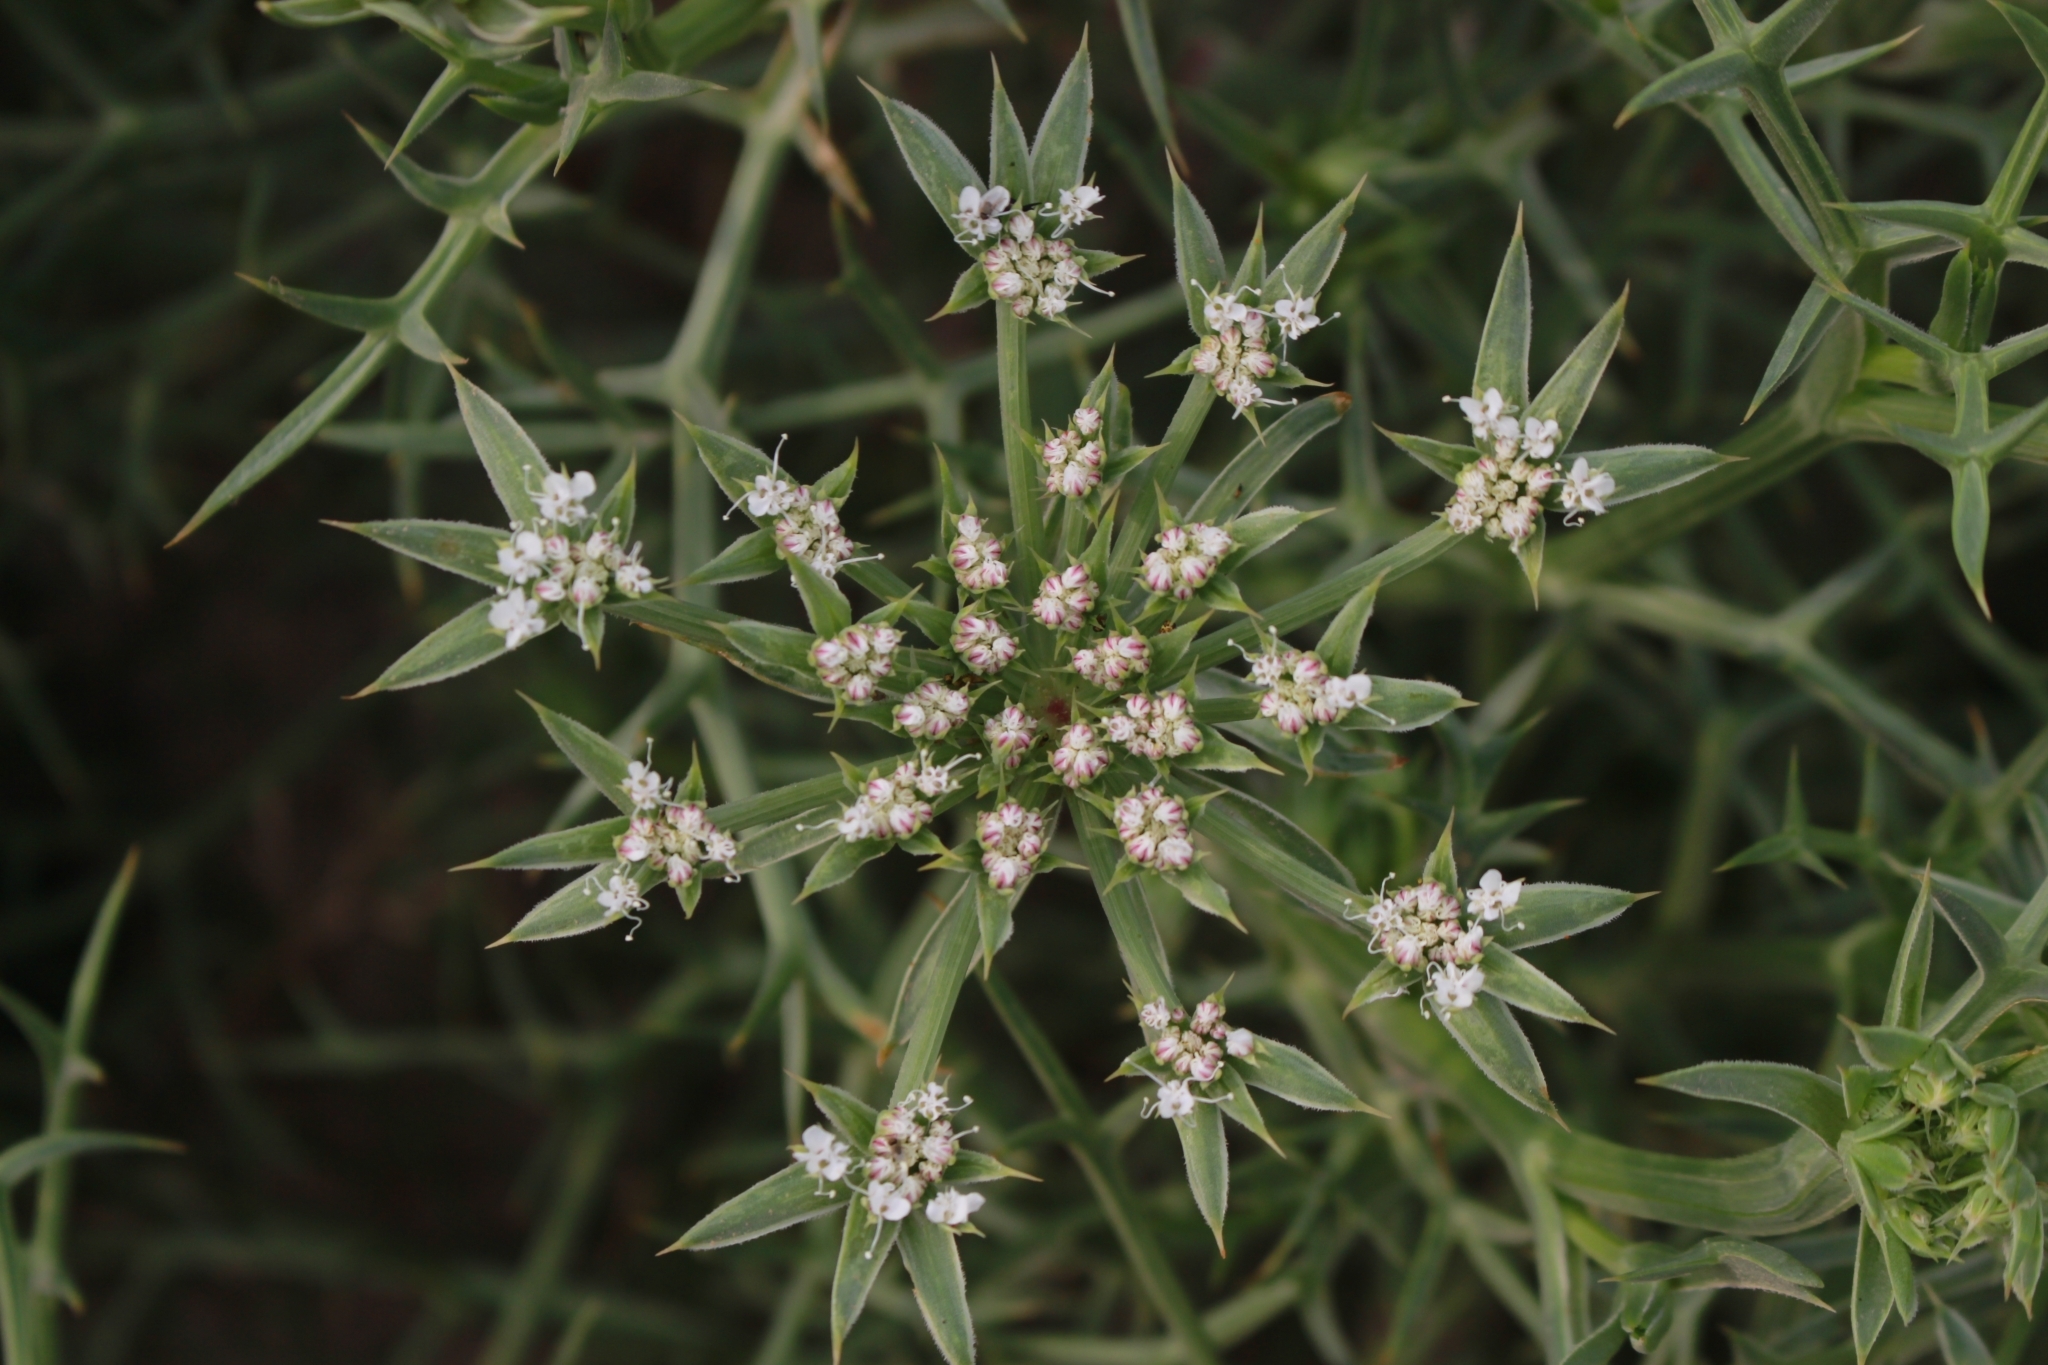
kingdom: Plantae
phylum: Tracheophyta
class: Magnoliopsida
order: Apiales
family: Apiaceae
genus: Echinophora
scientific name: Echinophora spinosa
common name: Prickly samphire
